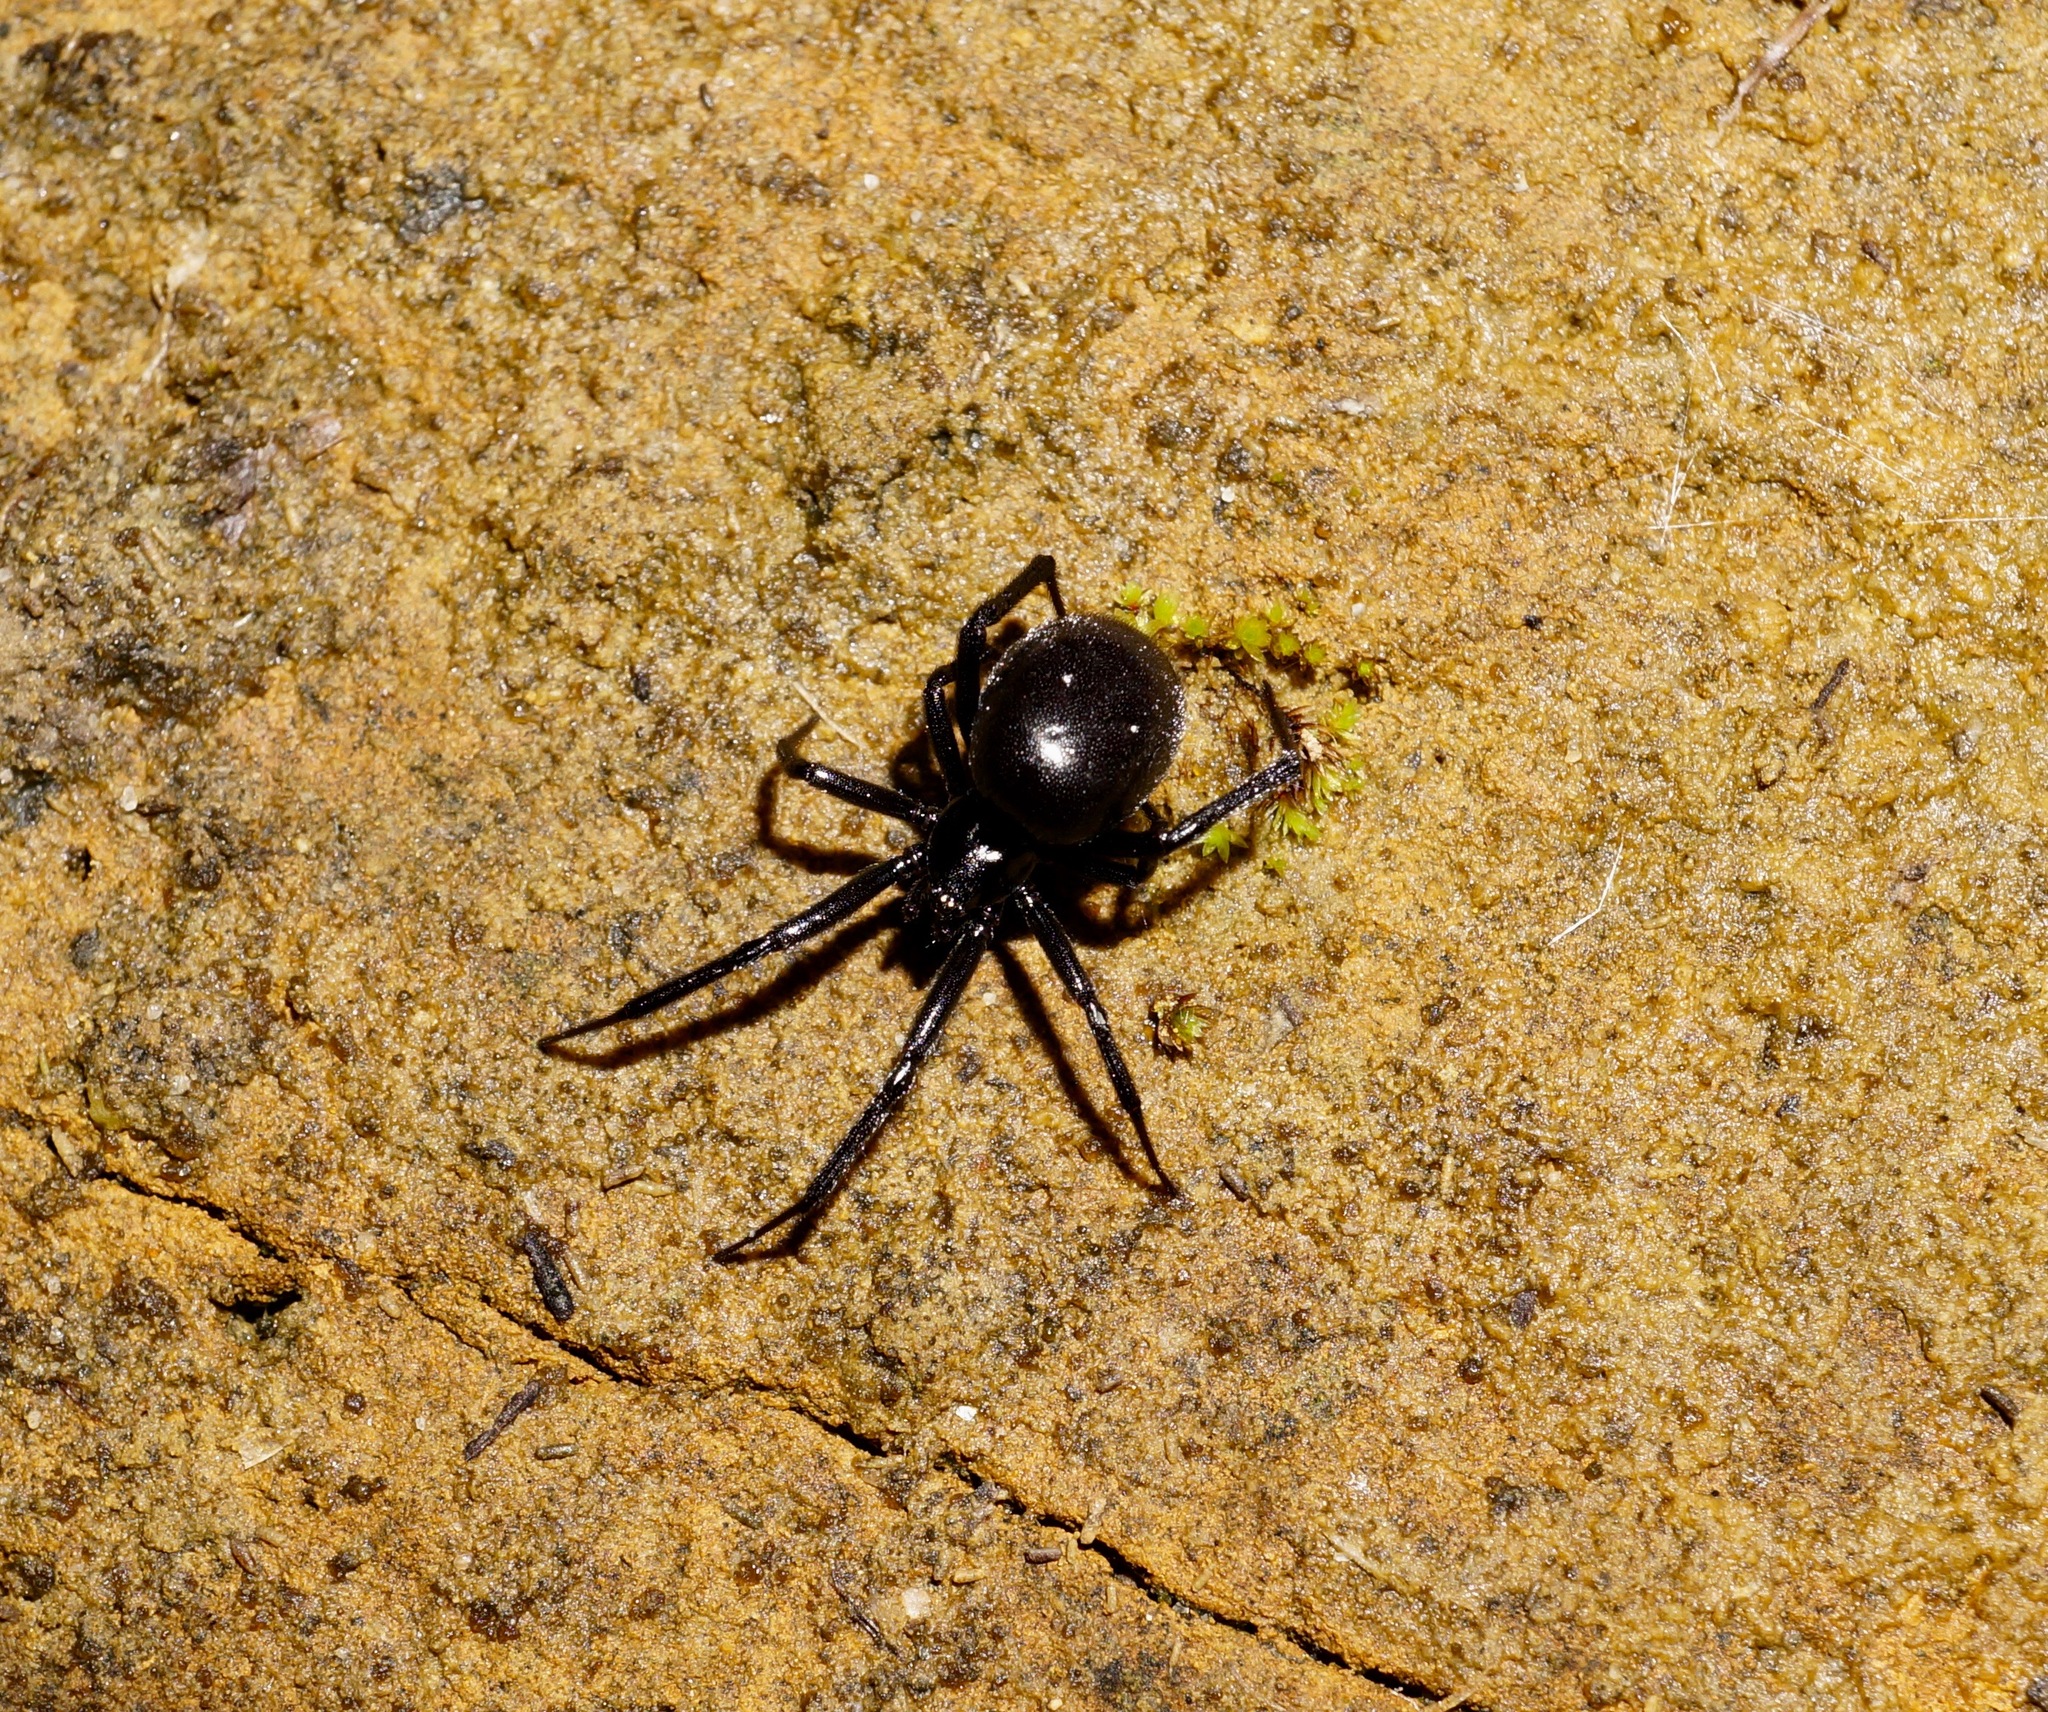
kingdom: Animalia
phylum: Arthropoda
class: Arachnida
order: Araneae
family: Theridiidae
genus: Steatoda
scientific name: Steatoda capensis
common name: Cobweb weaver
